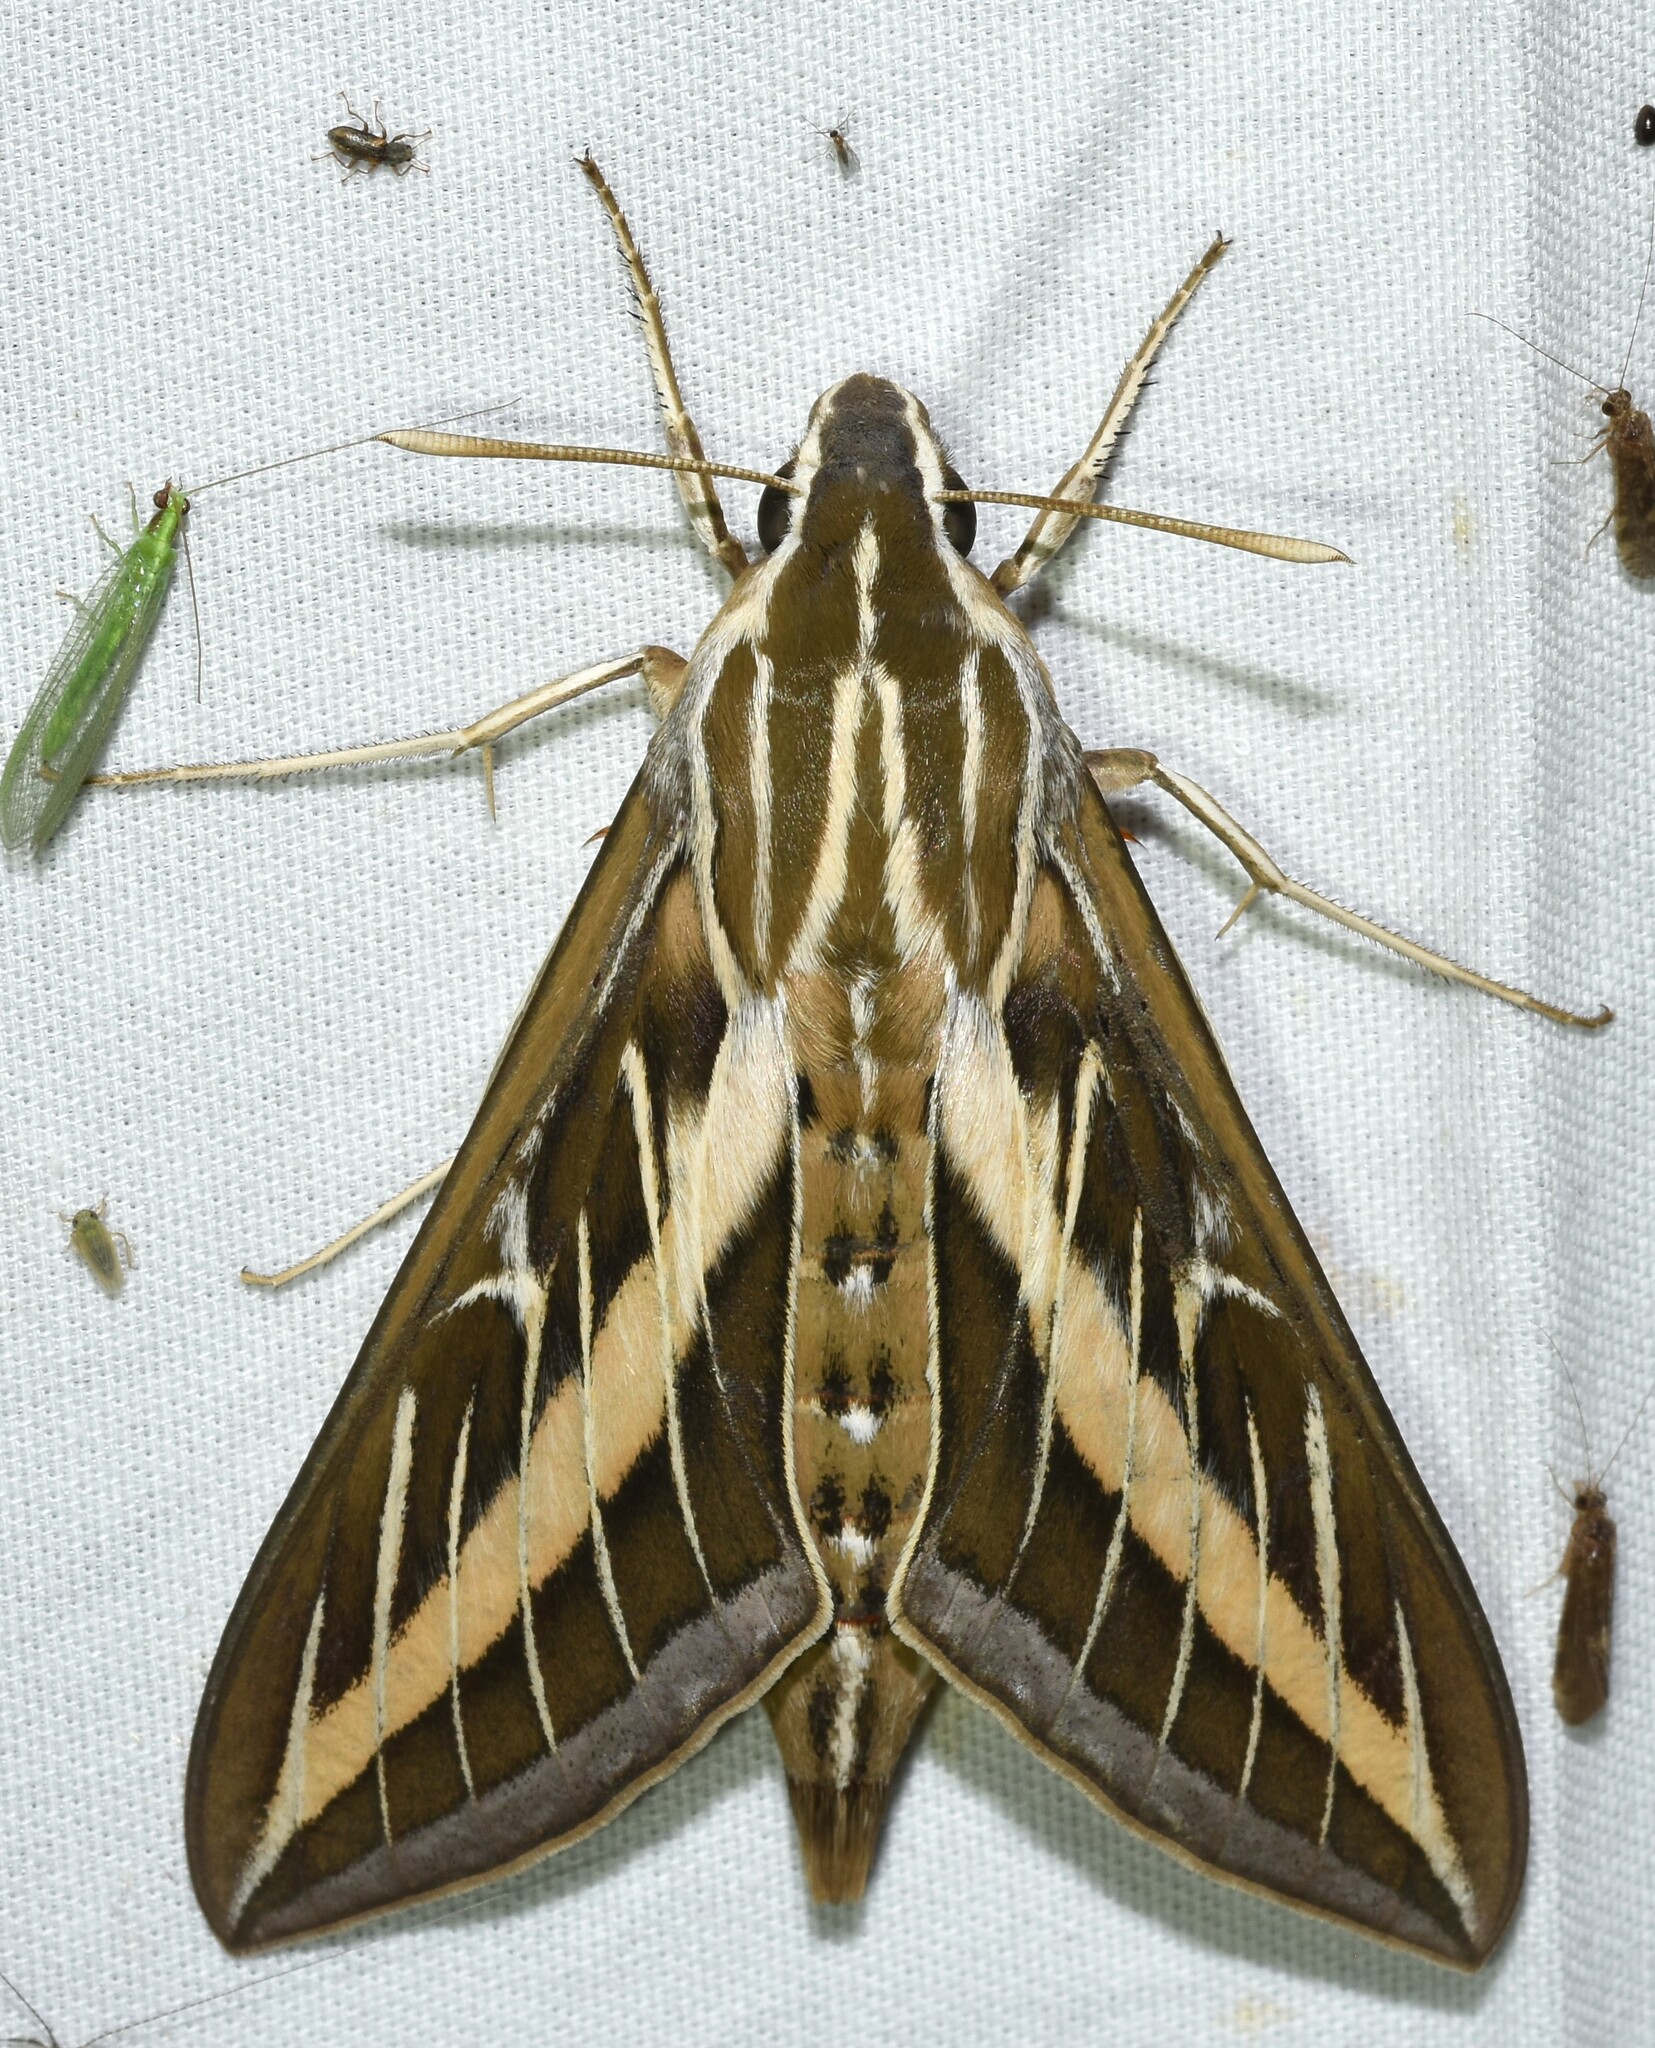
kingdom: Animalia
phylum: Arthropoda
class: Insecta
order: Lepidoptera
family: Sphingidae
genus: Hyles
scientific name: Hyles lineata
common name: White-lined sphinx
